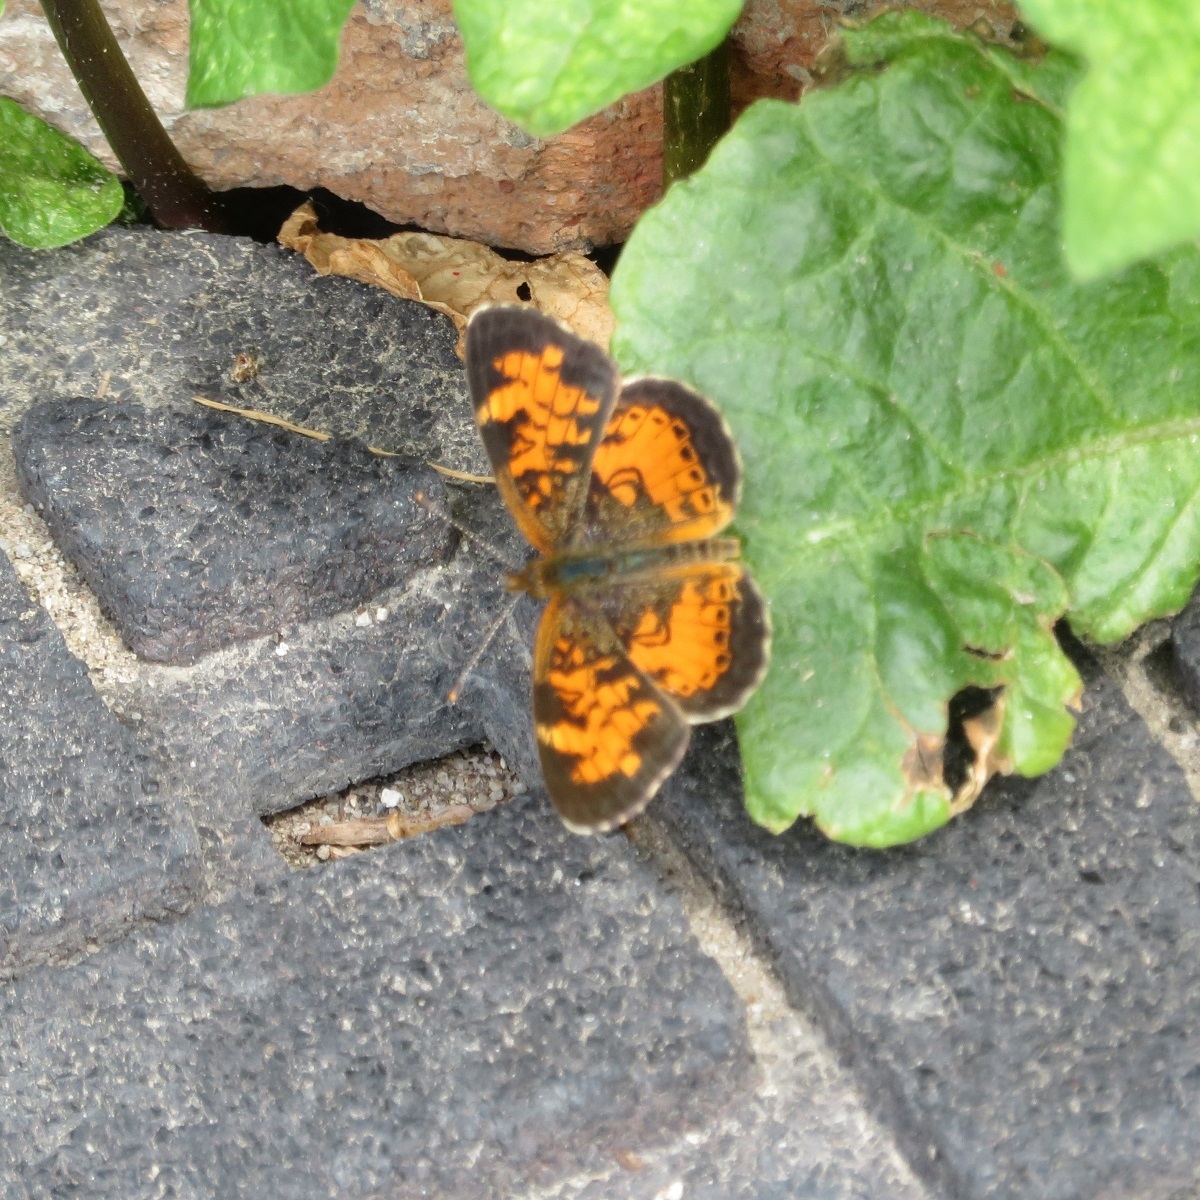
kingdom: Animalia
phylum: Arthropoda
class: Insecta
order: Lepidoptera
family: Nymphalidae
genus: Phyciodes
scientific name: Phyciodes tharos
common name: Pearl crescent
